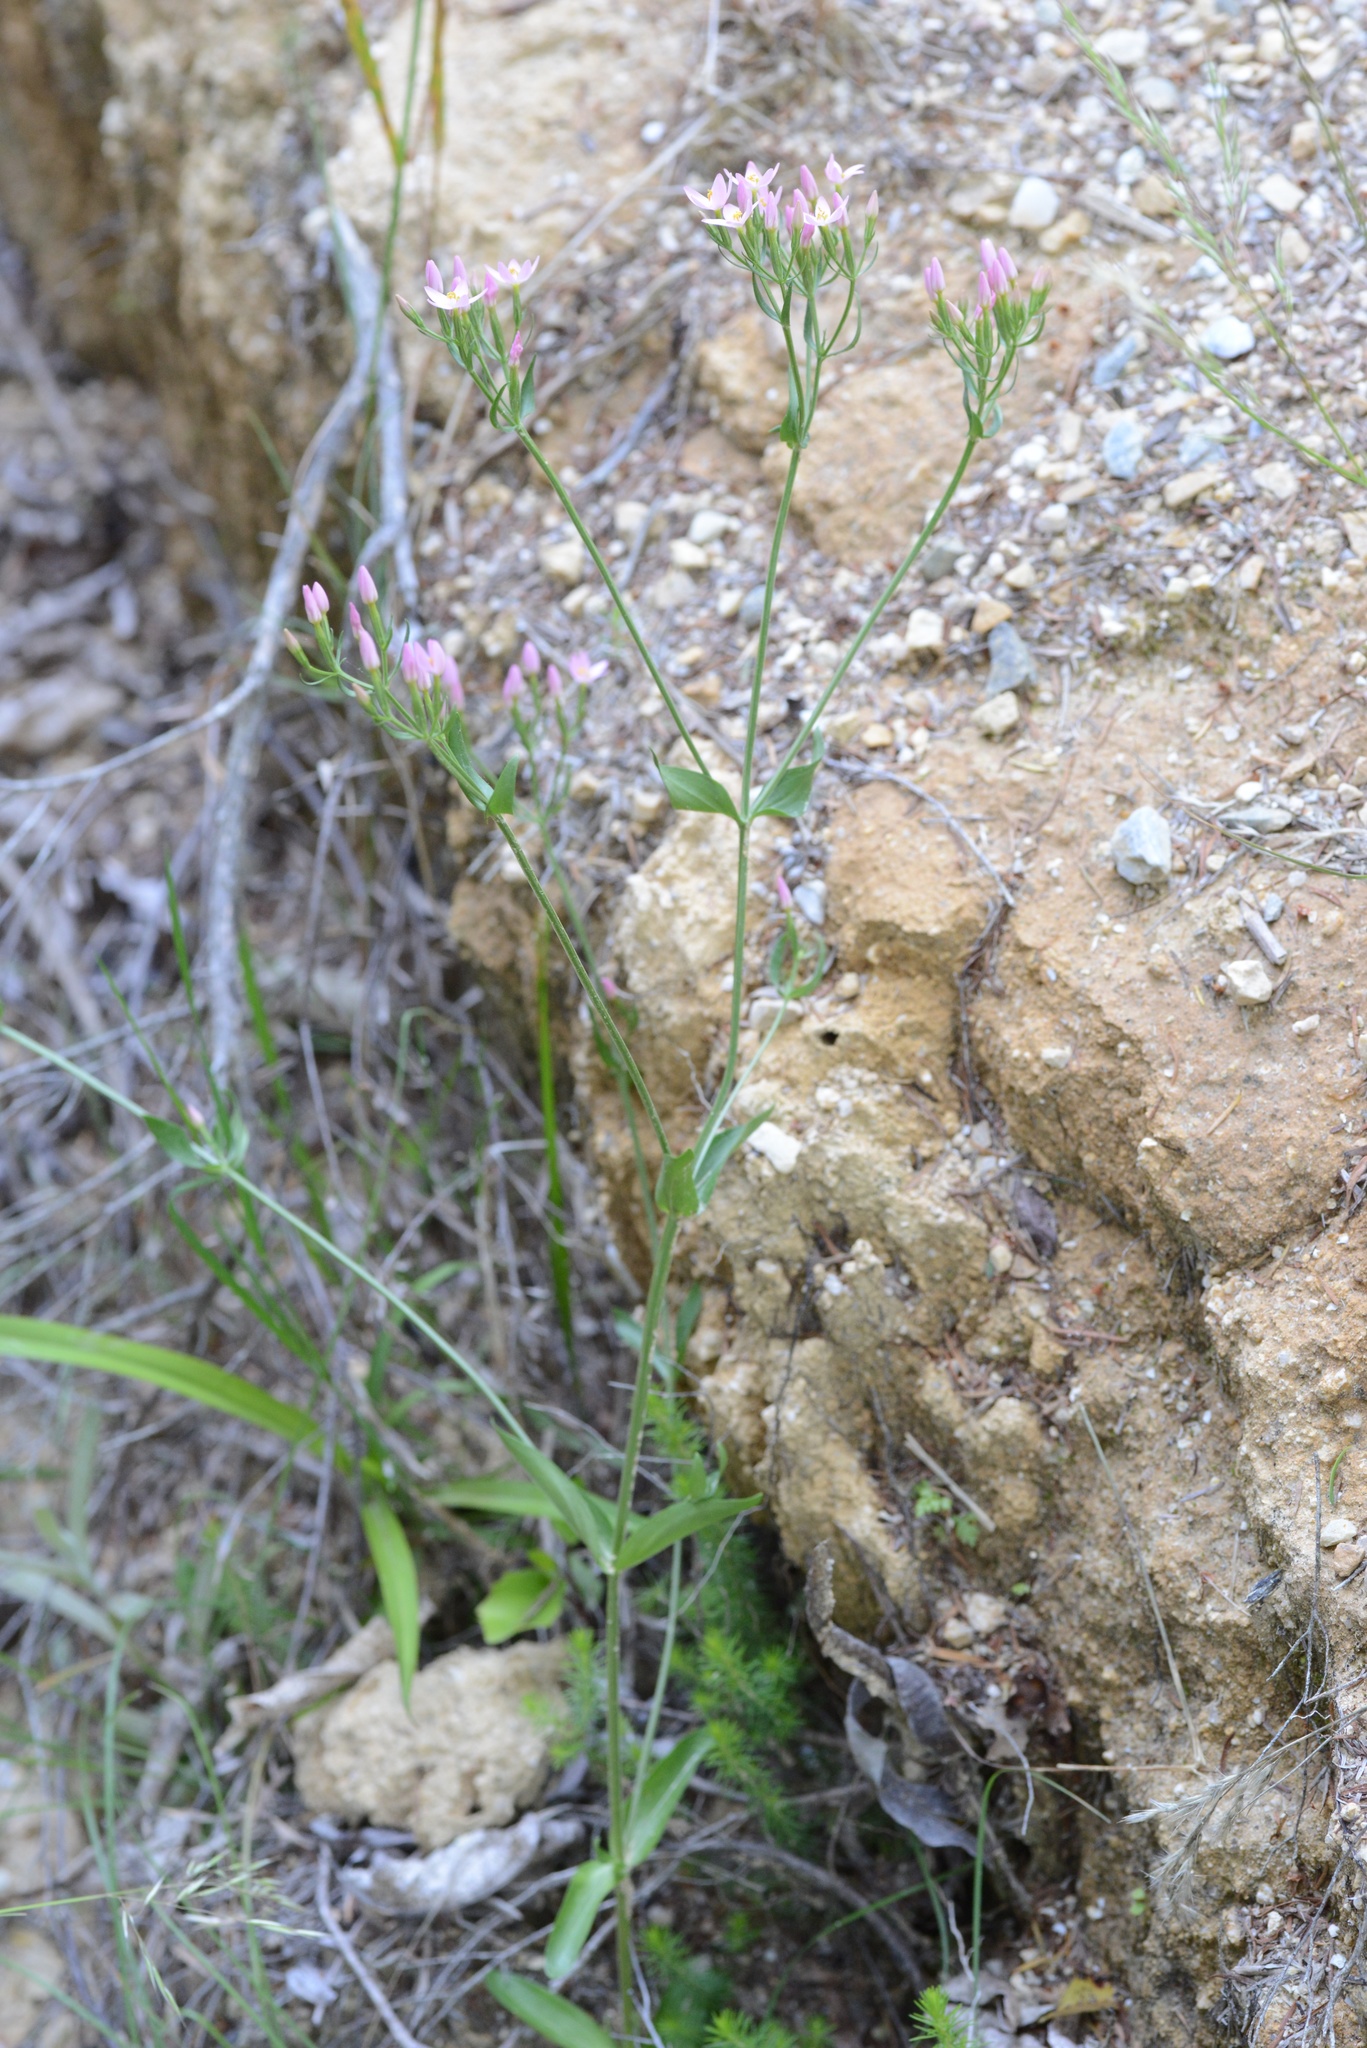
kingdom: Plantae
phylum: Tracheophyta
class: Magnoliopsida
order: Gentianales
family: Gentianaceae
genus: Centaurium
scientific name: Centaurium erythraea
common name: Common centaury
